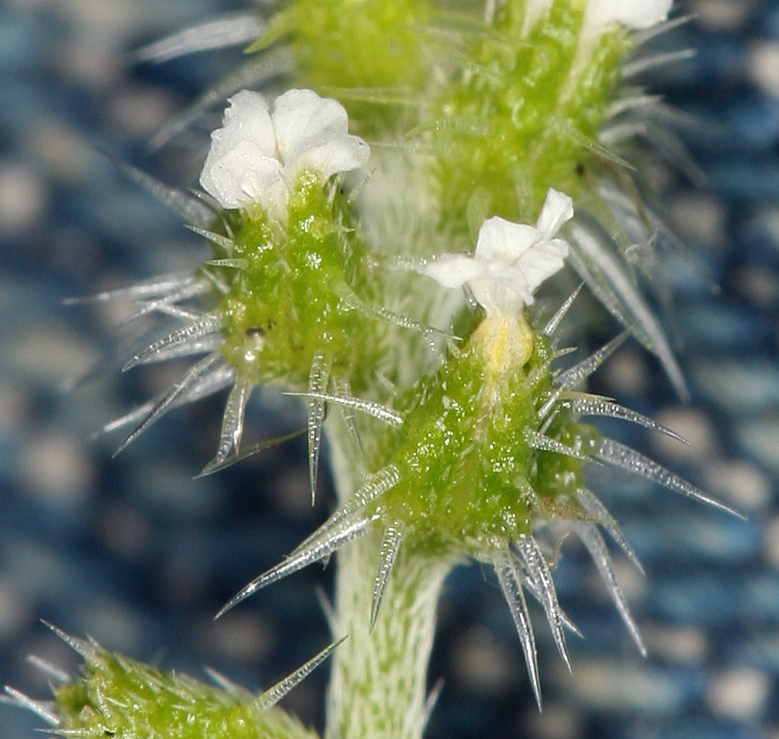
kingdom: Plantae
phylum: Tracheophyta
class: Magnoliopsida
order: Boraginales
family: Boraginaceae
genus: Cryptantha
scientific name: Cryptantha dumetorum
